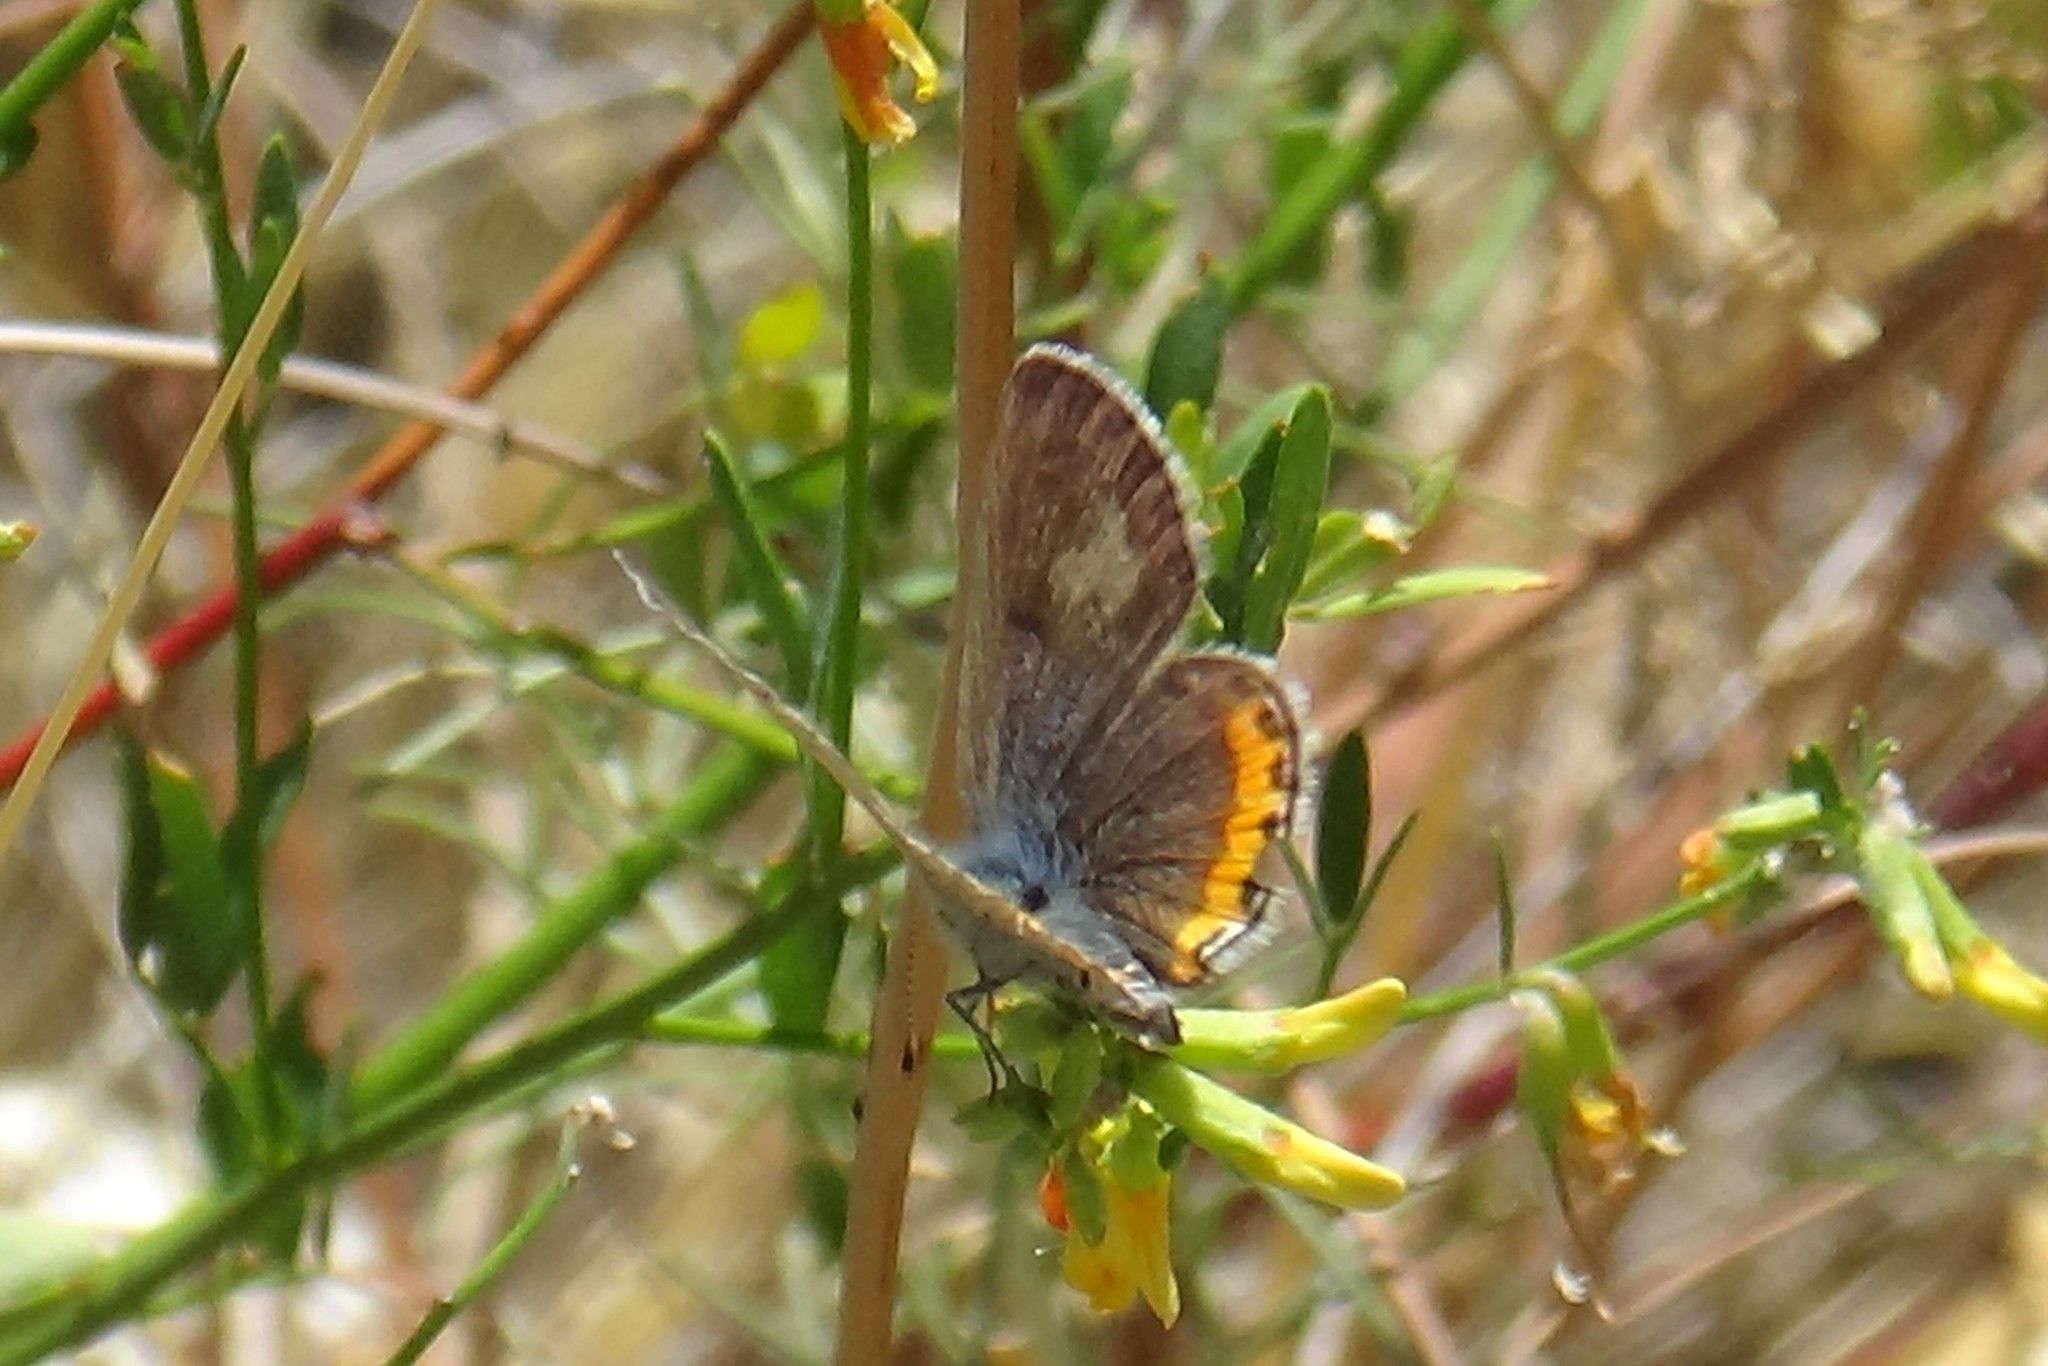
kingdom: Animalia
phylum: Arthropoda
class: Insecta
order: Lepidoptera
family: Lycaenidae
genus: Icaricia
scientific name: Icaricia acmon
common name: Acmon blue
